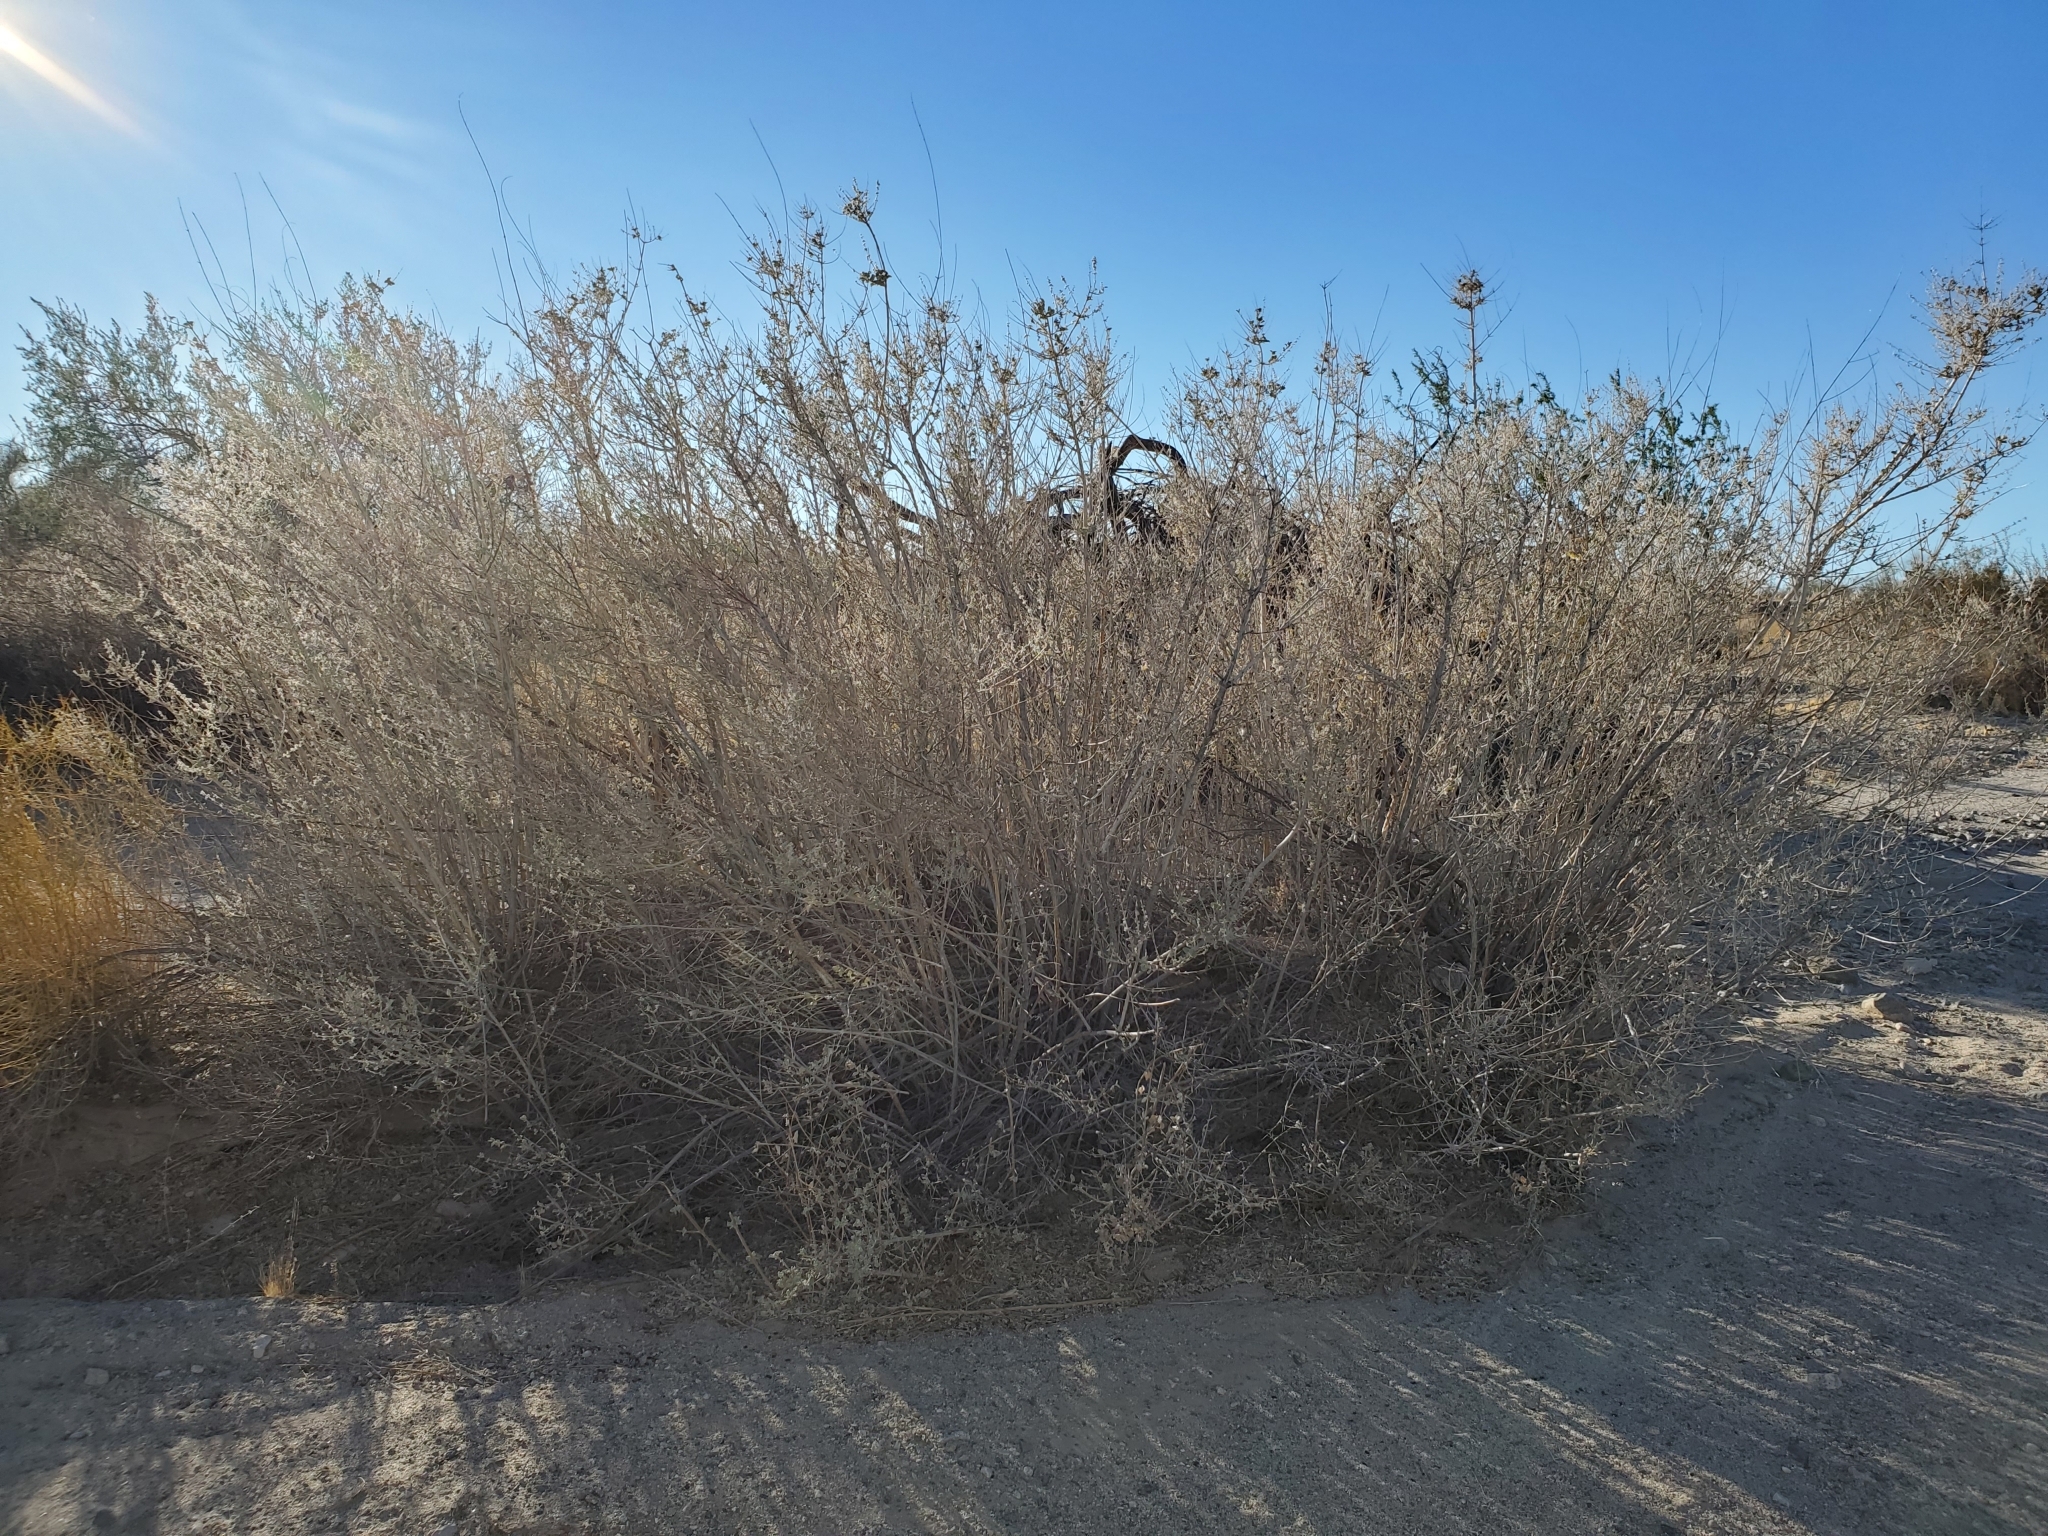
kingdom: Plantae
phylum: Tracheophyta
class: Magnoliopsida
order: Lamiales
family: Lamiaceae
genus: Condea
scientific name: Condea emoryi
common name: Chia
